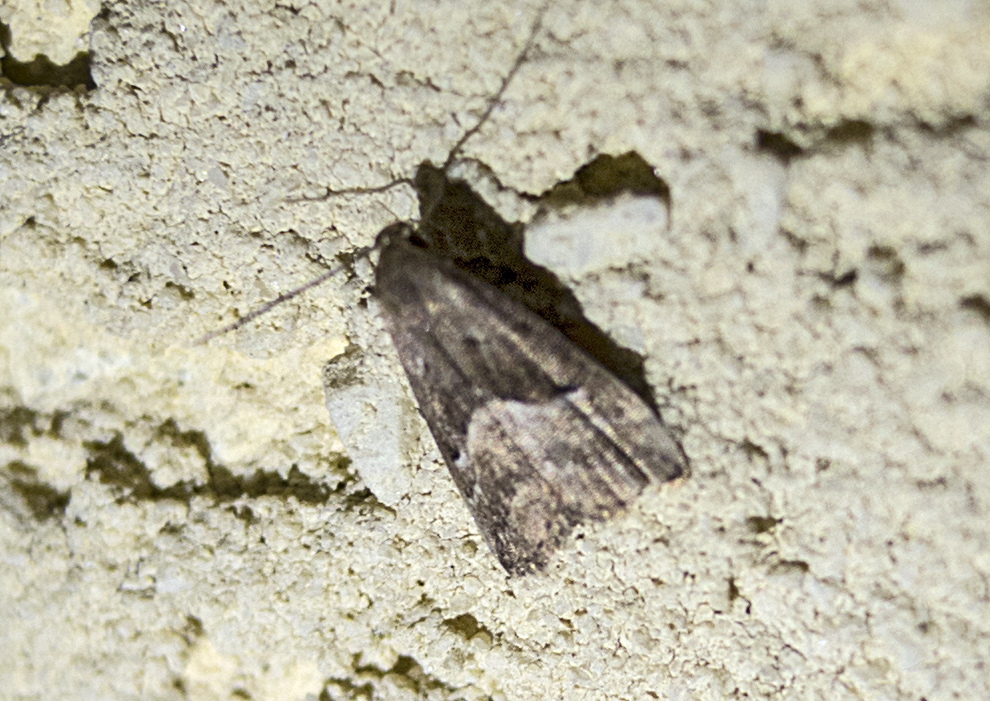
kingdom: Animalia
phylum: Arthropoda
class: Insecta
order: Lepidoptera
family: Erebidae
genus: Schrankia
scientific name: Schrankia taenialis
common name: White-line snout
